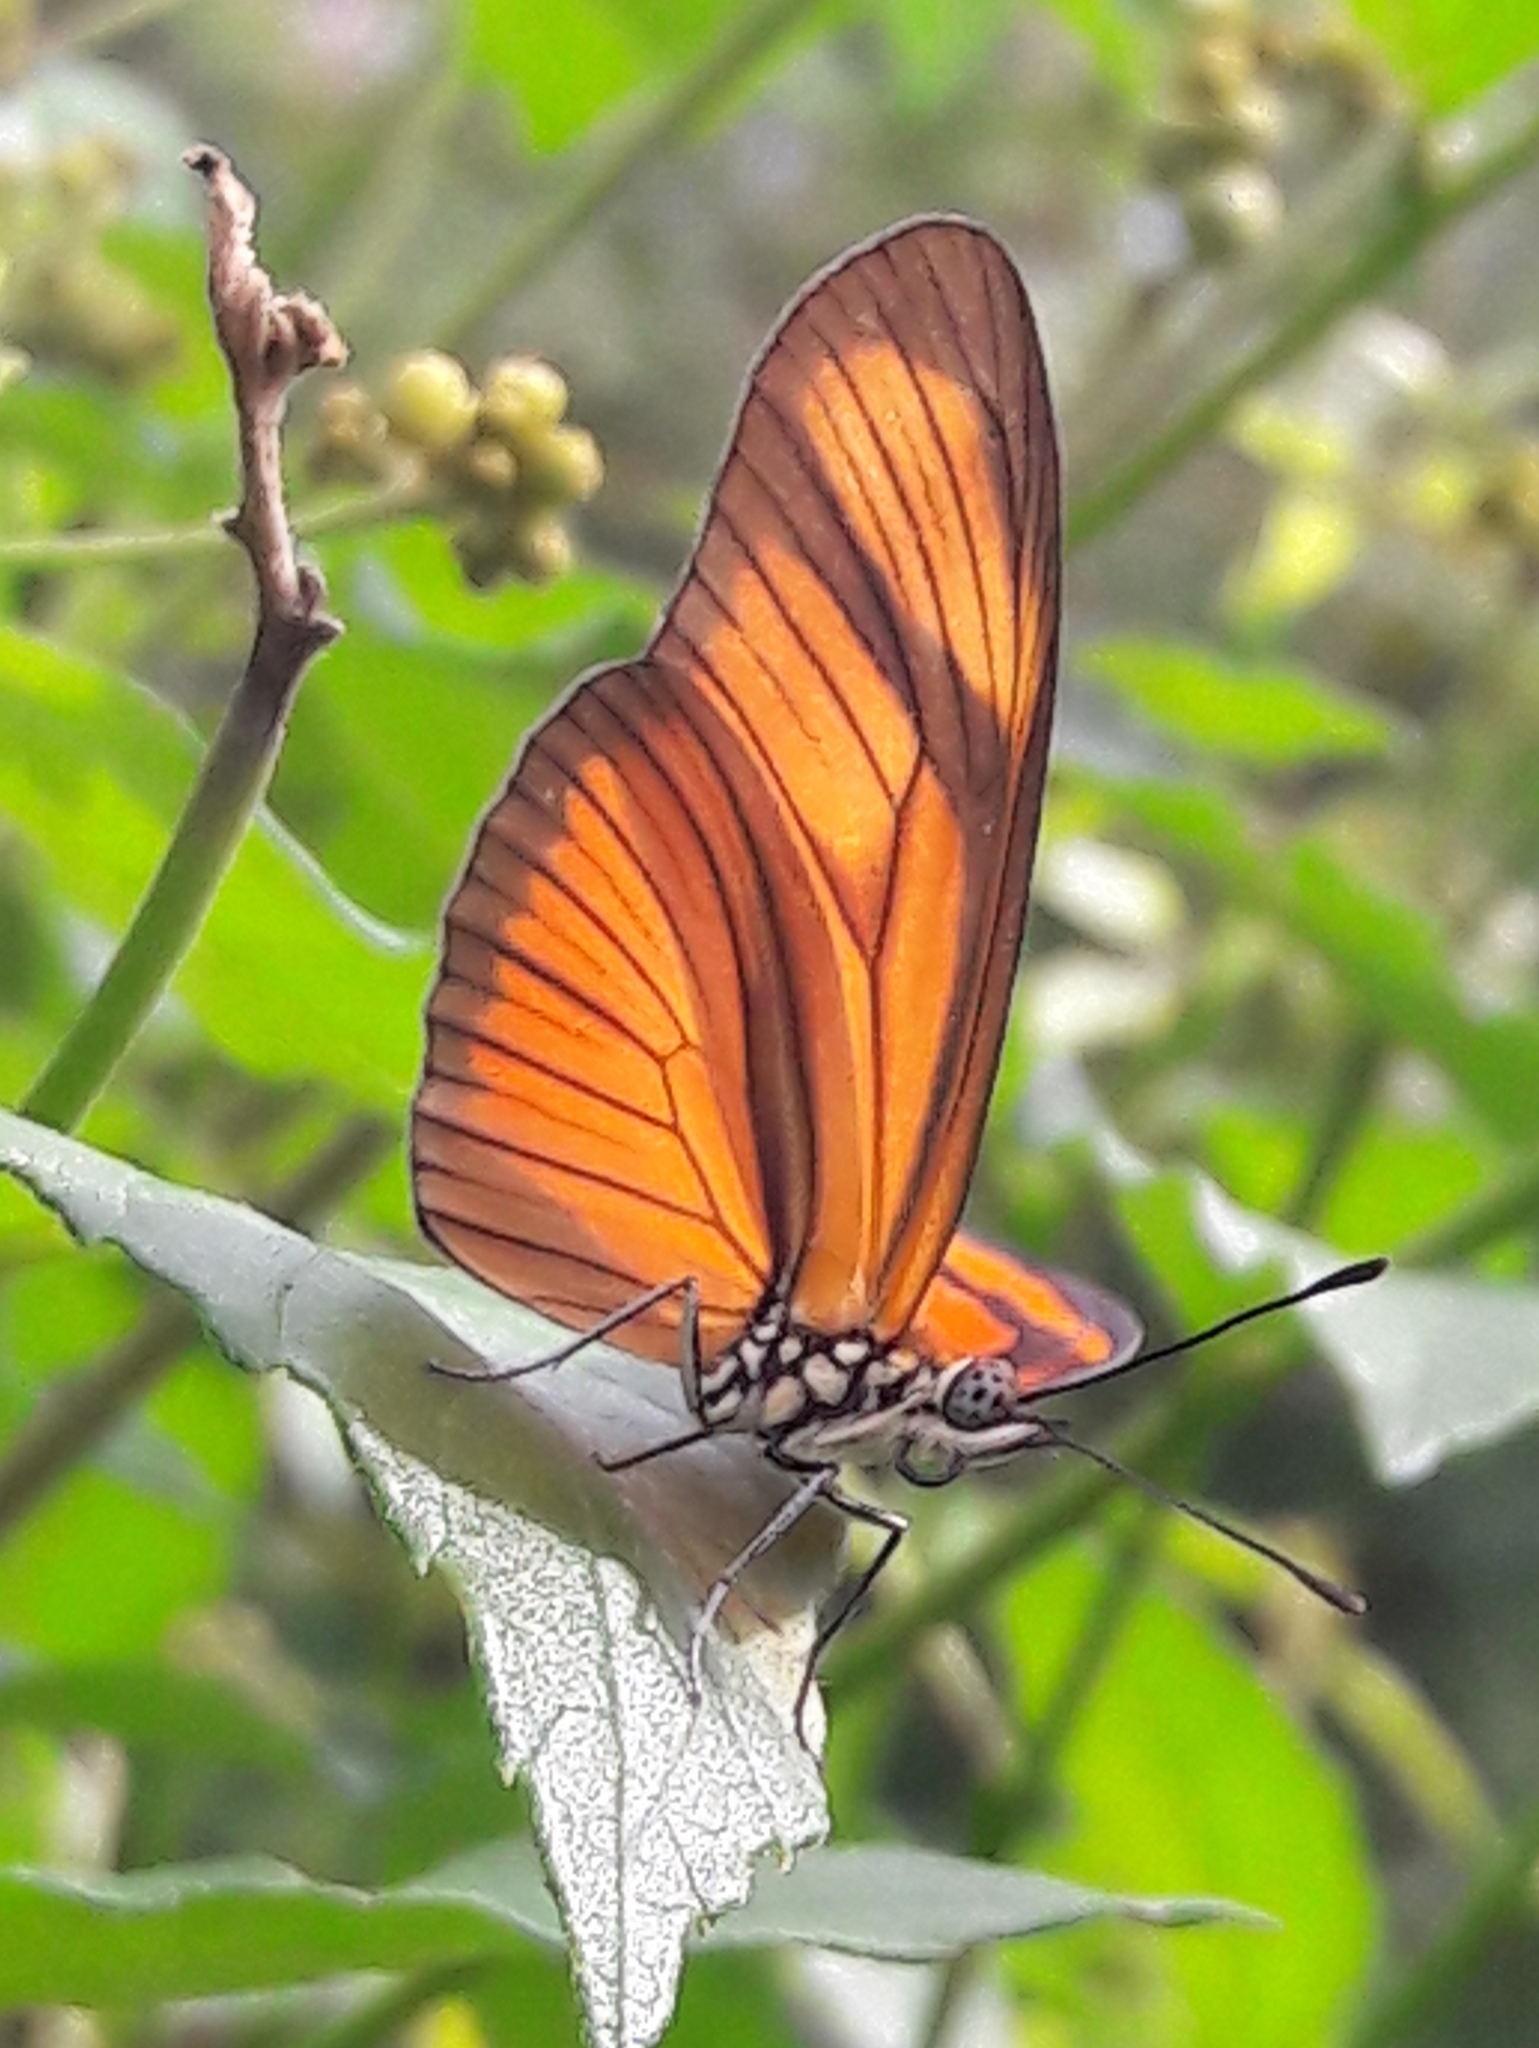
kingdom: Animalia
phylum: Arthropoda
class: Insecta
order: Lepidoptera
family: Nymphalidae
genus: Heliconius
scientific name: Heliconius aliphera
